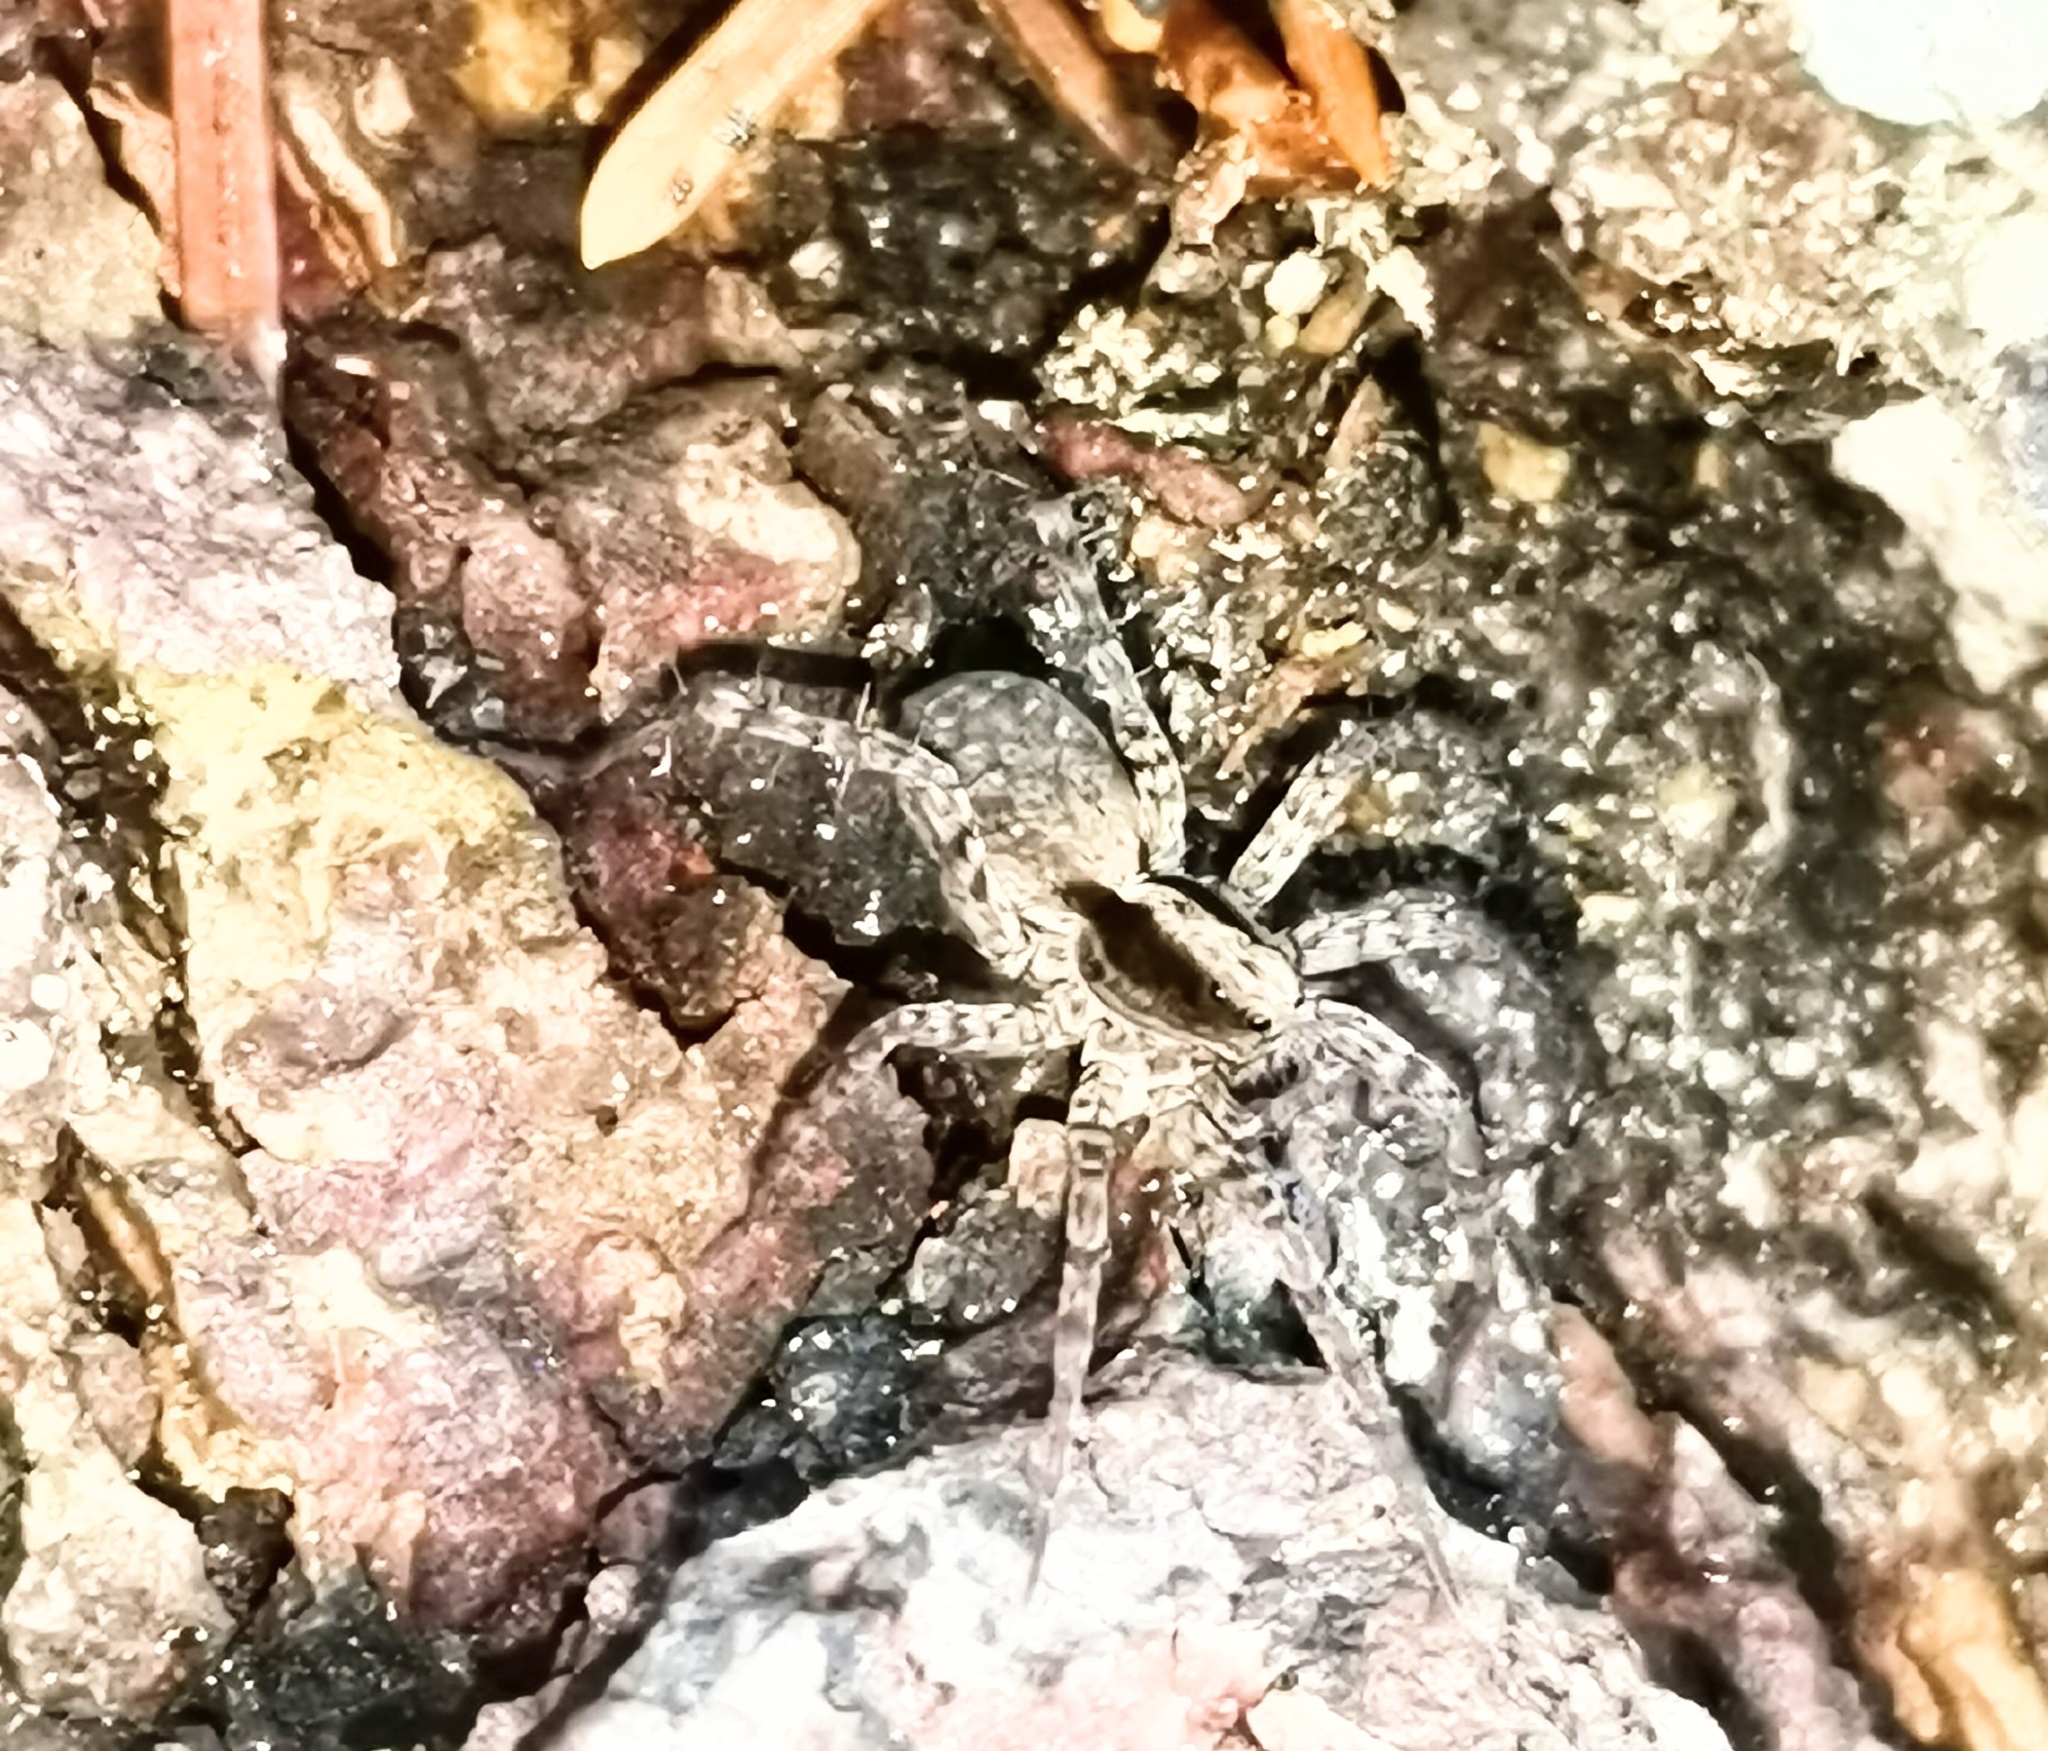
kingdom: Animalia
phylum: Arthropoda
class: Arachnida
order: Araneae
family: Lycosidae
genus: Pardosa
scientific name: Pardosa
